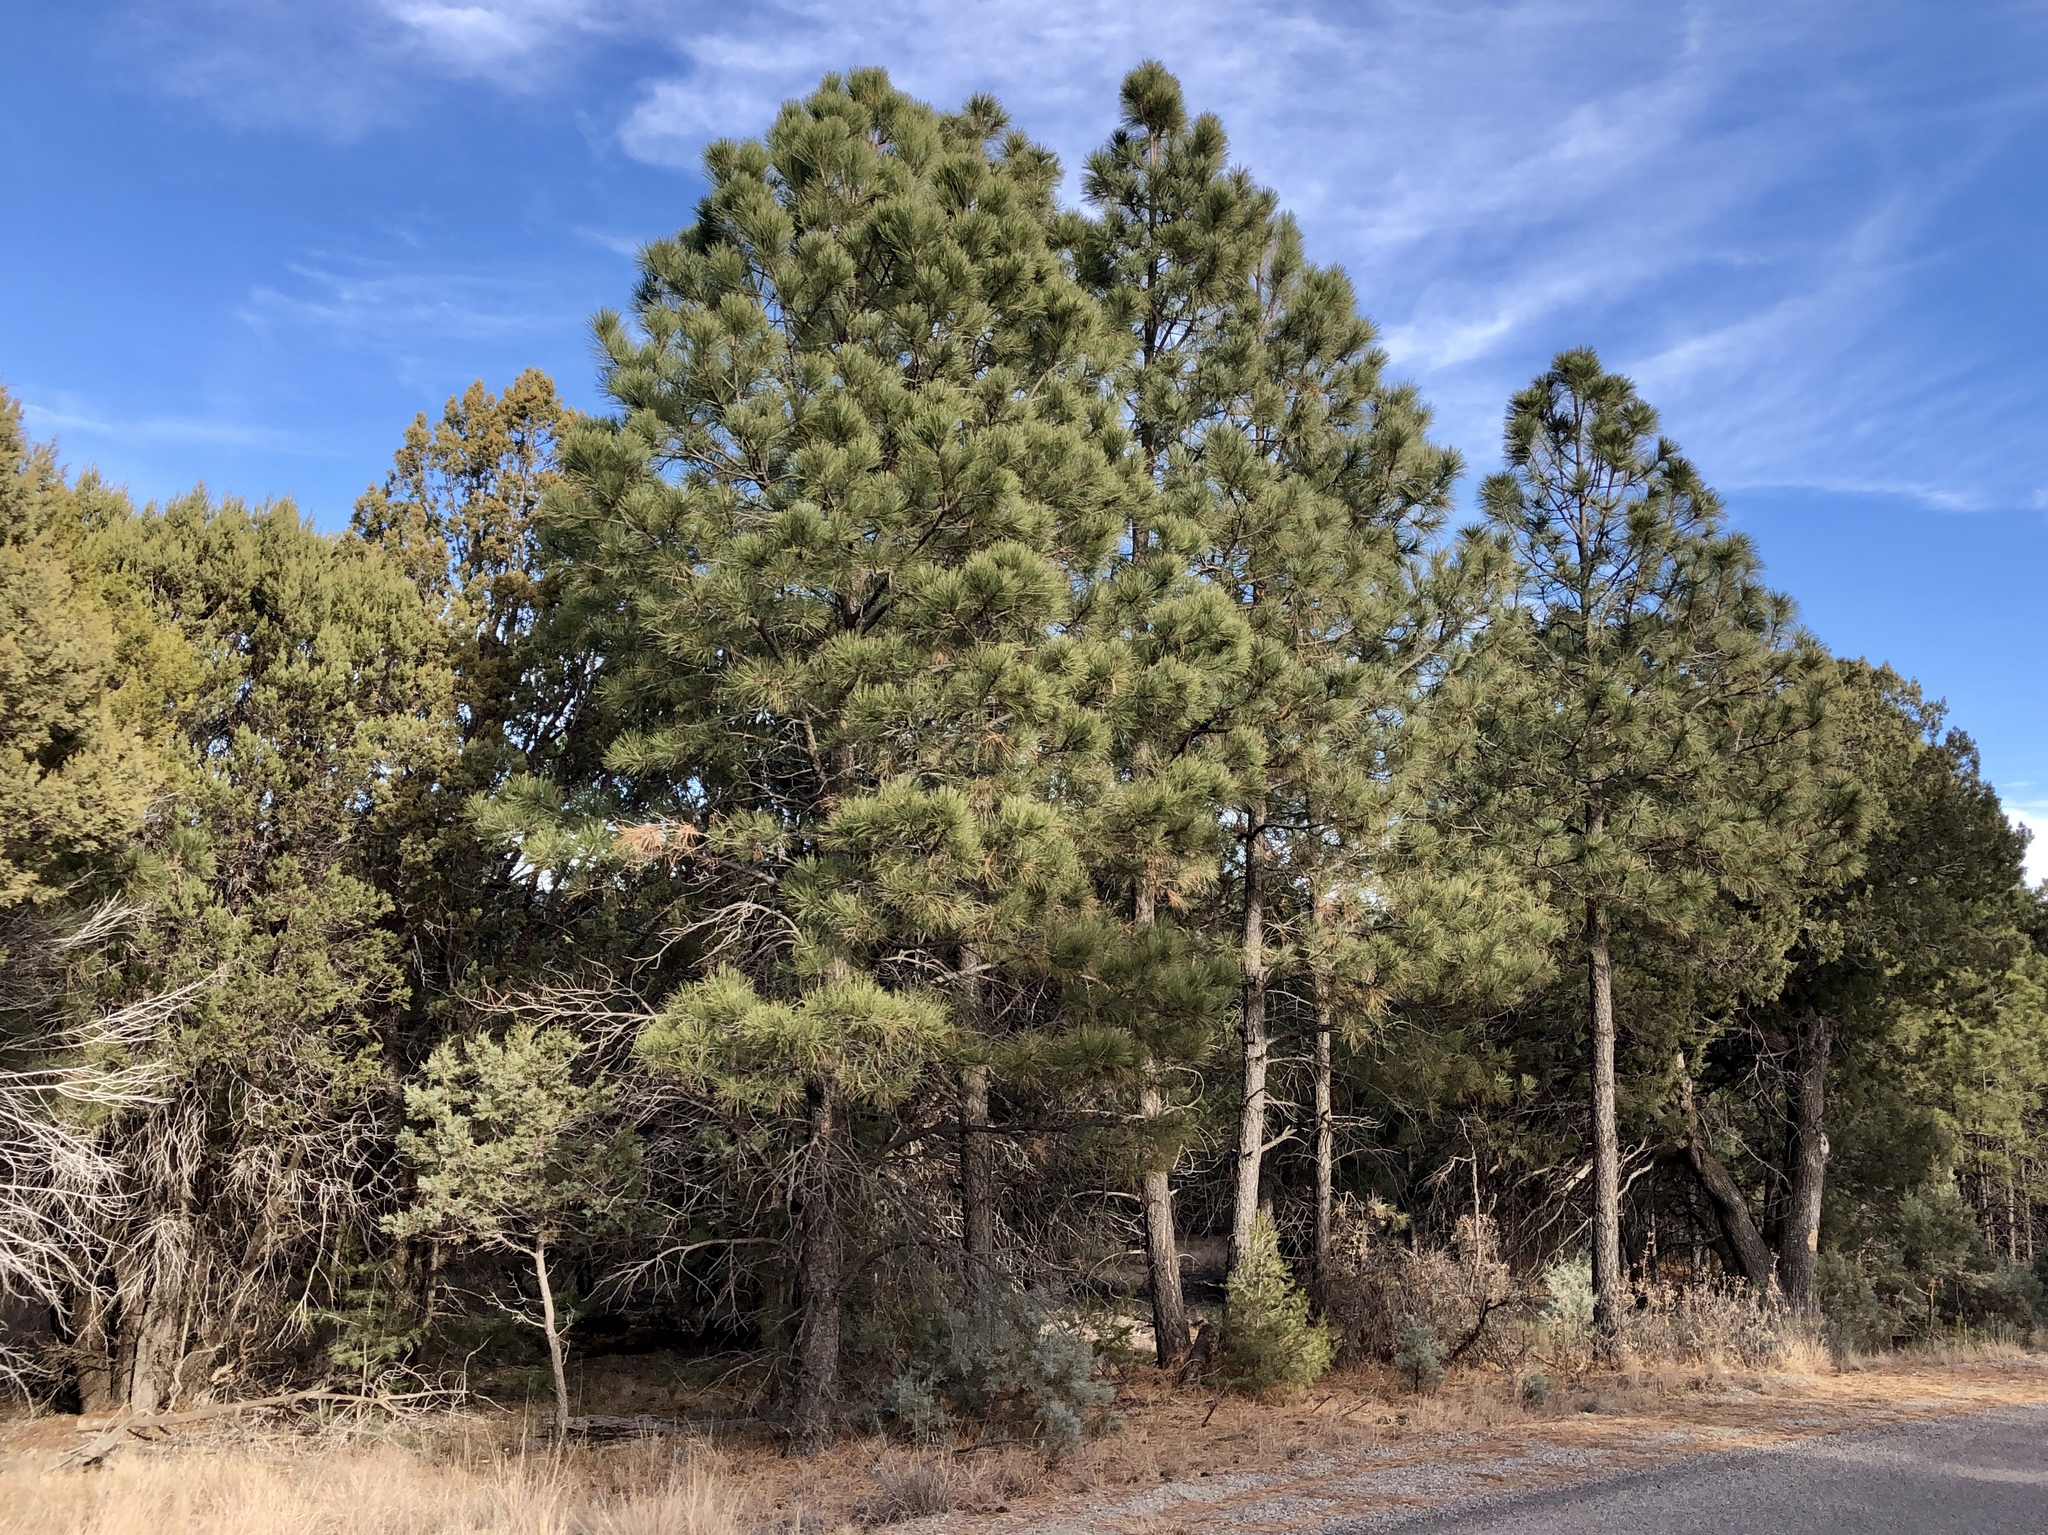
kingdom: Plantae
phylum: Tracheophyta
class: Pinopsida
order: Pinales
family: Pinaceae
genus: Pinus
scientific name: Pinus ponderosa
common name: Western yellow-pine
